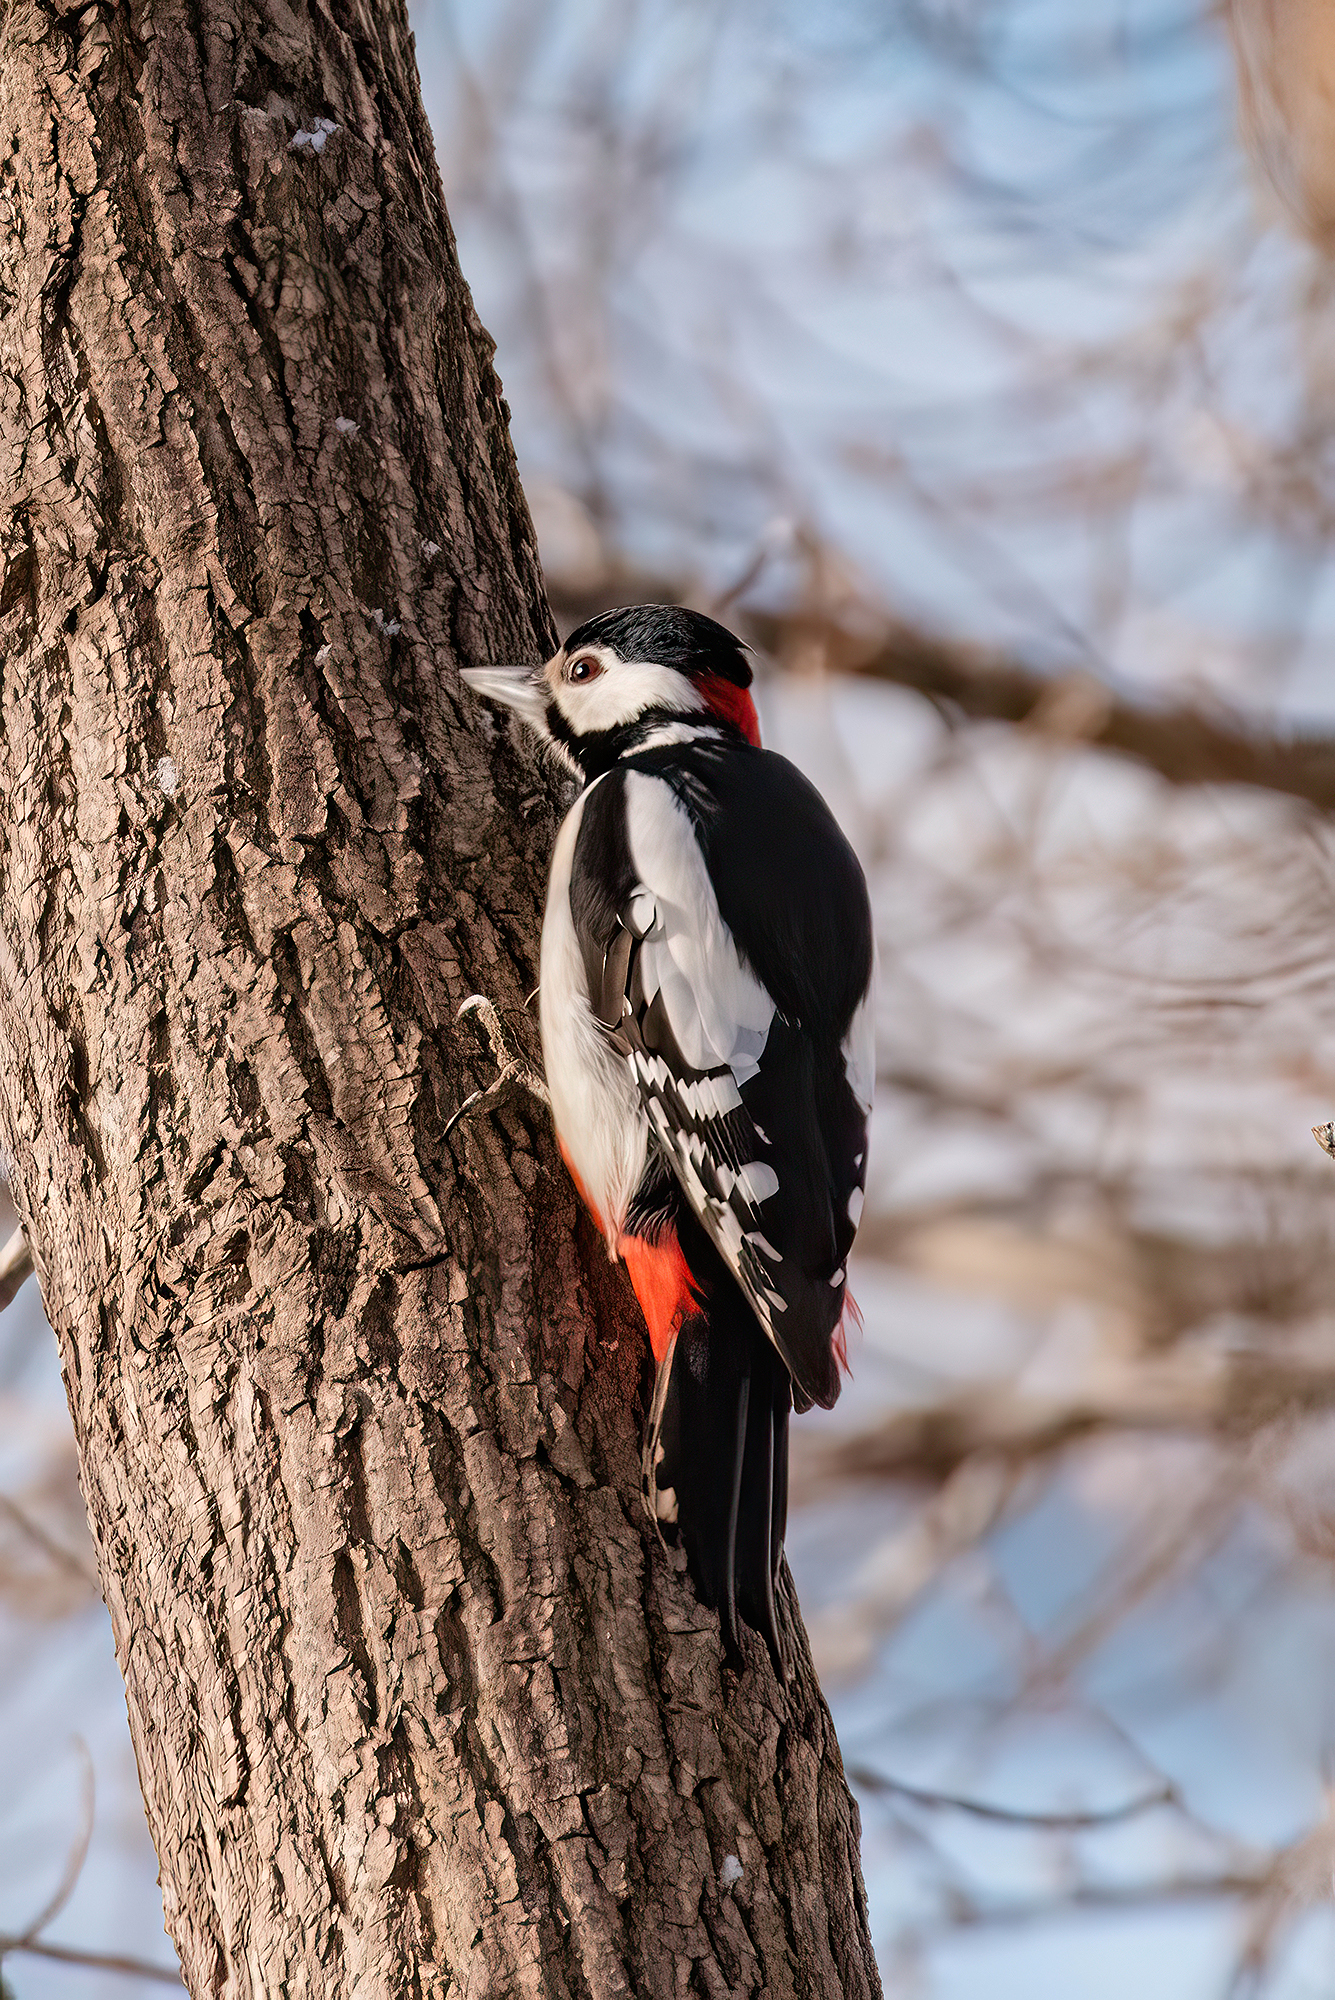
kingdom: Animalia
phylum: Chordata
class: Aves
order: Piciformes
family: Picidae
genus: Dendrocopos
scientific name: Dendrocopos major
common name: Great spotted woodpecker
